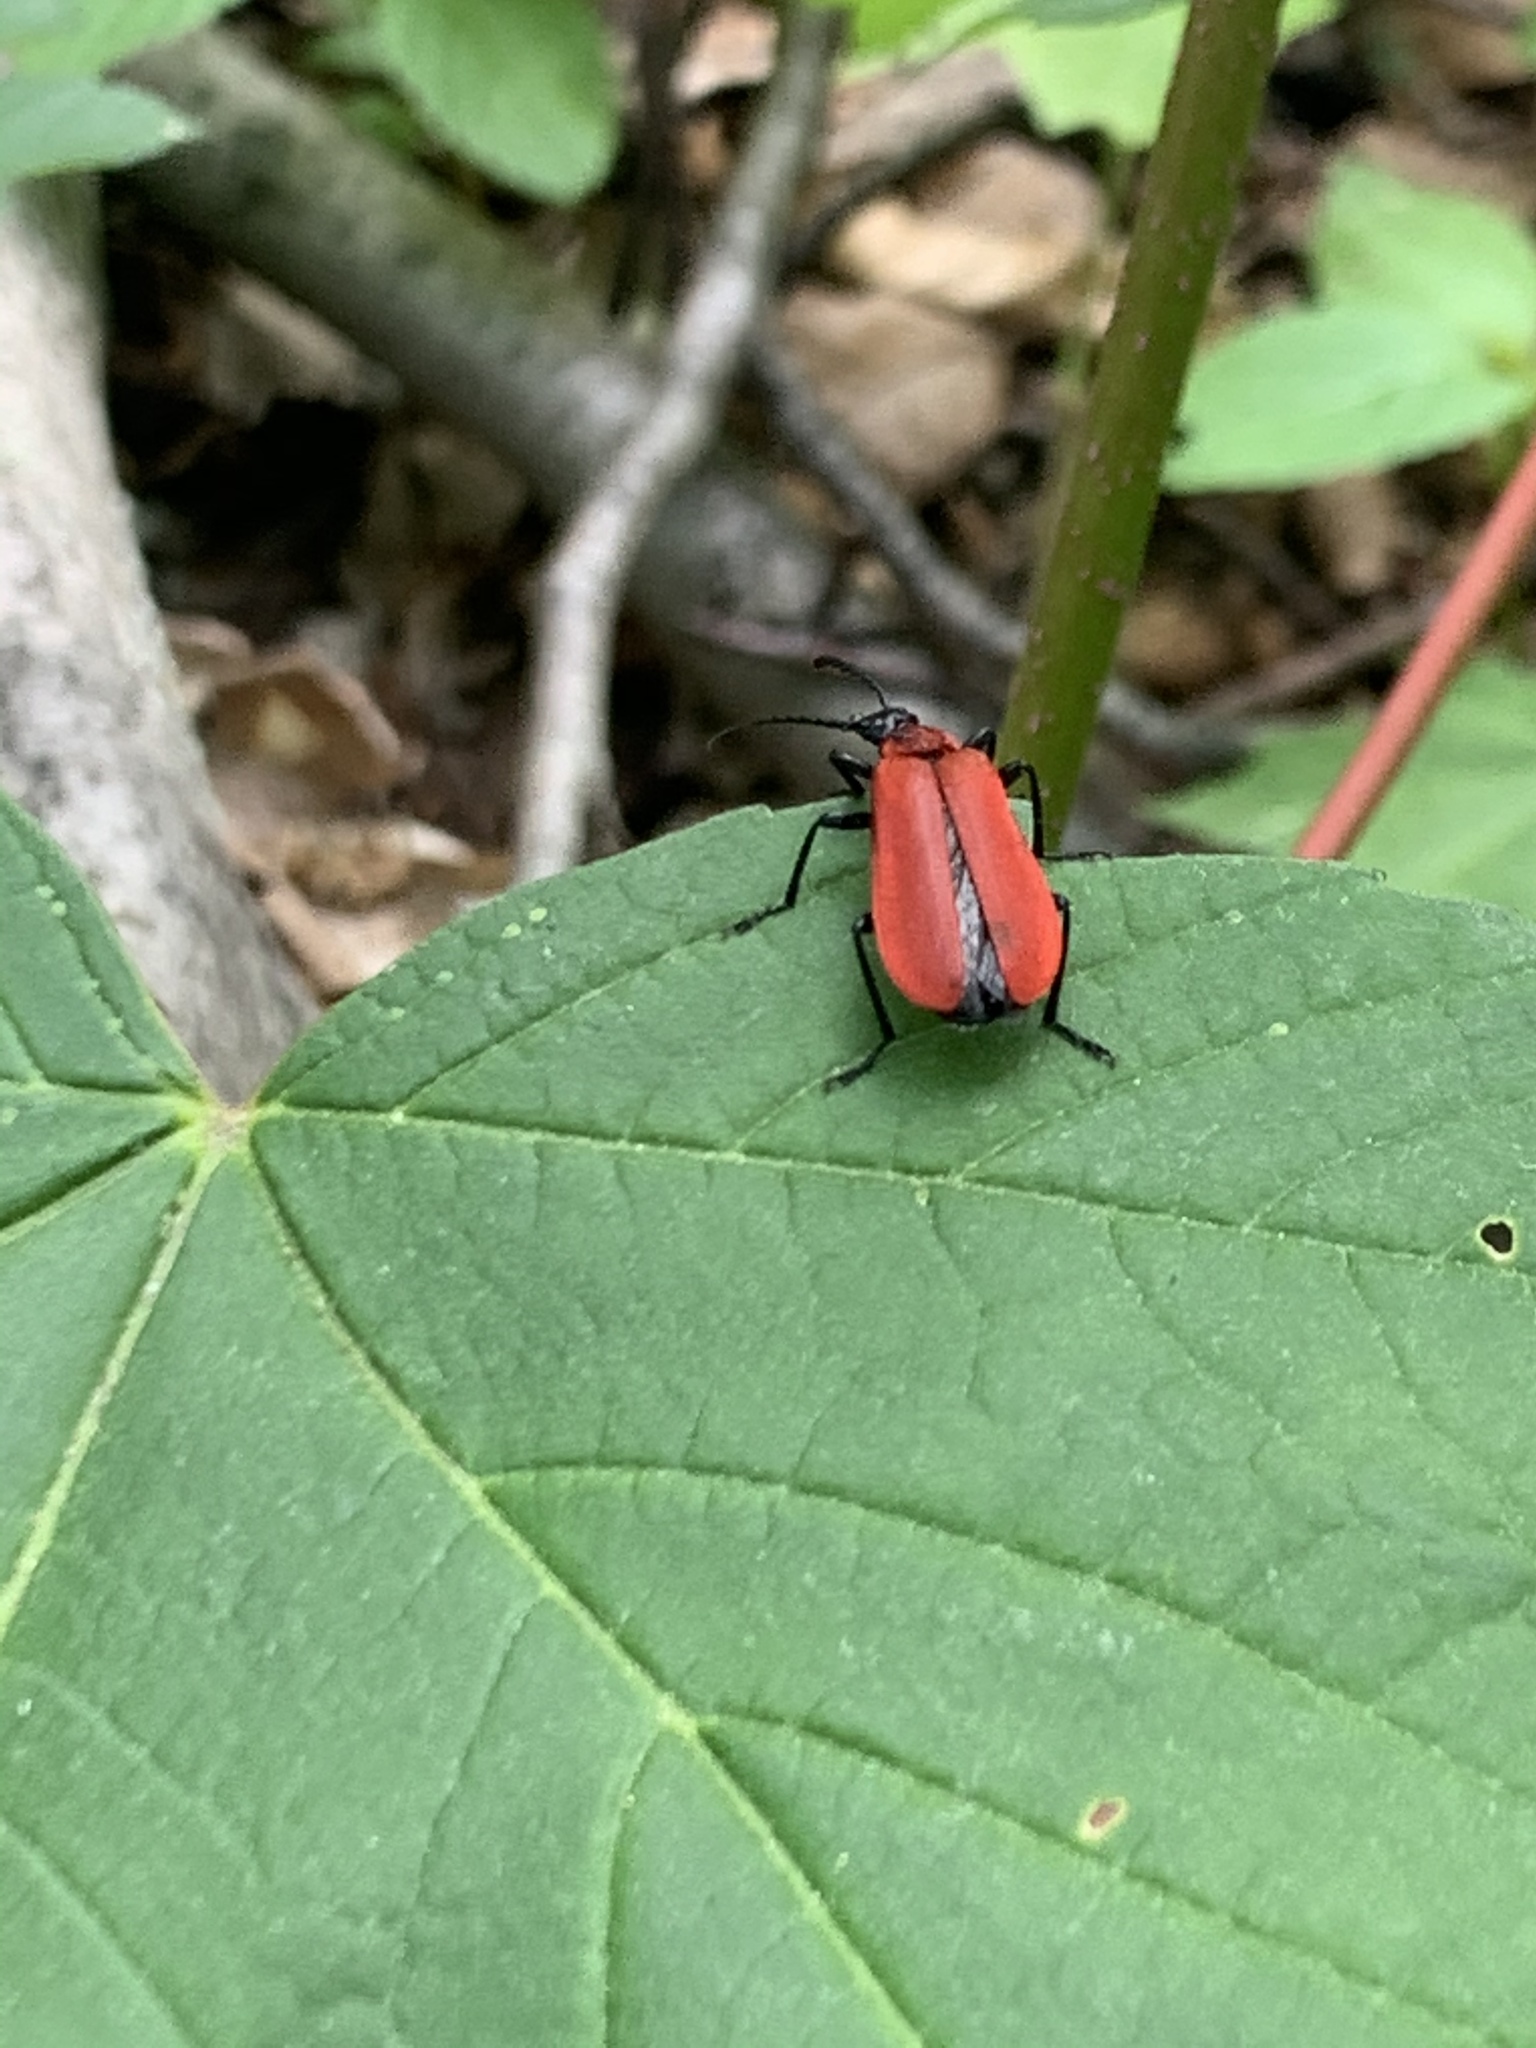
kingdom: Animalia
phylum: Arthropoda
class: Insecta
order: Coleoptera
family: Pyrochroidae
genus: Pyrochroa
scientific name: Pyrochroa coccinea
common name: Black-headed cardinal beetle
